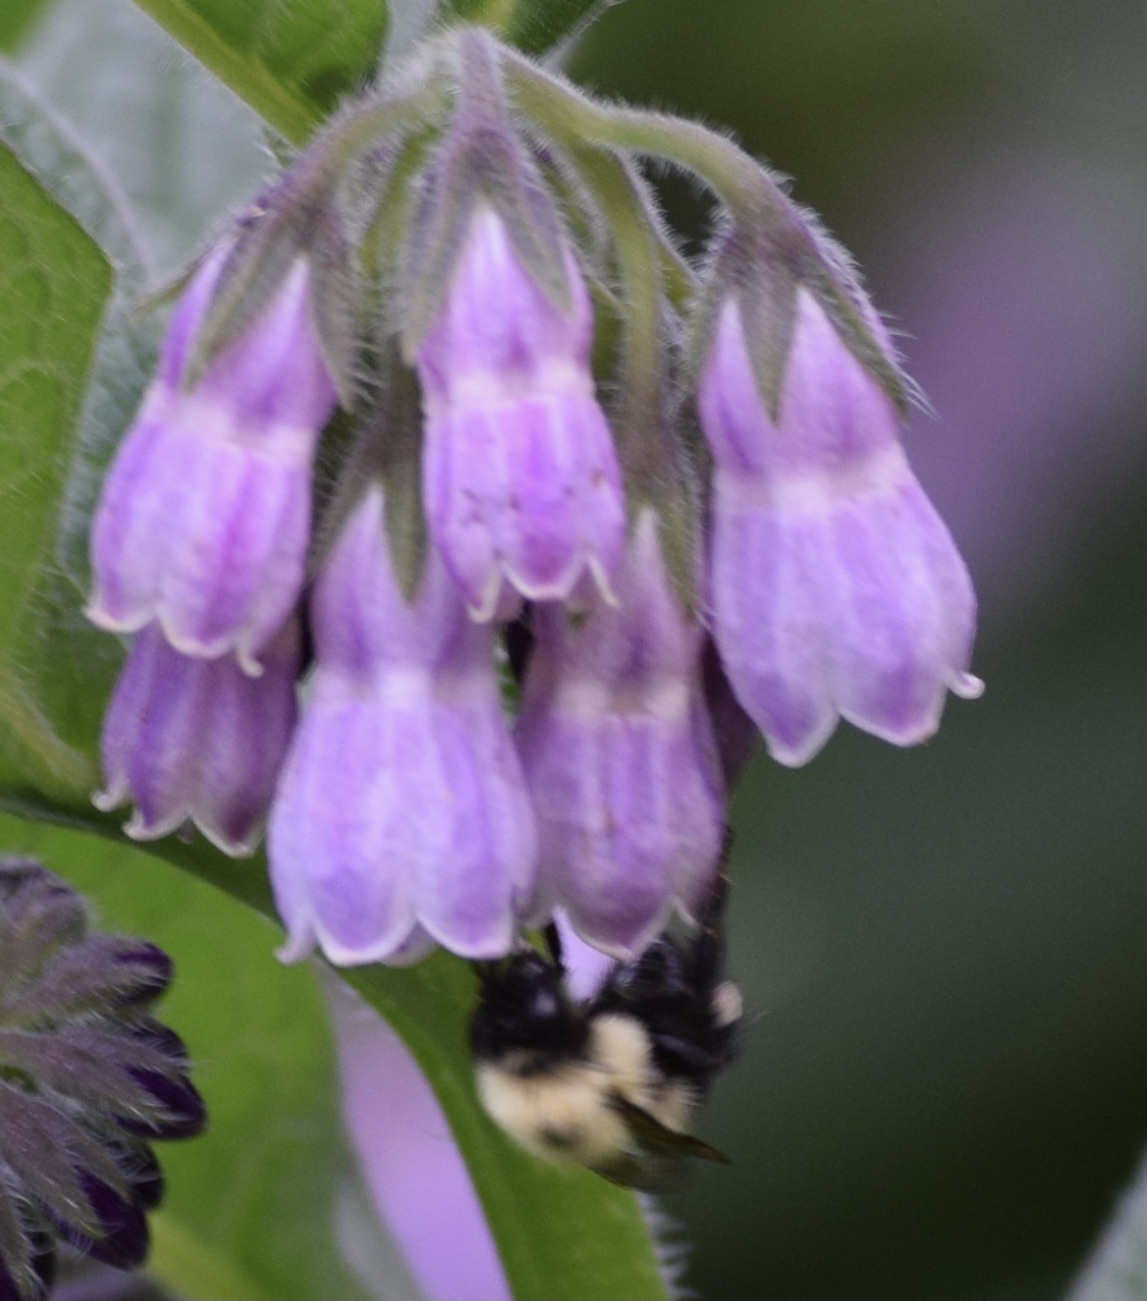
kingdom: Animalia
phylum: Arthropoda
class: Insecta
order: Hymenoptera
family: Apidae
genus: Bombus
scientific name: Bombus bimaculatus
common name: Two-spotted bumble bee
